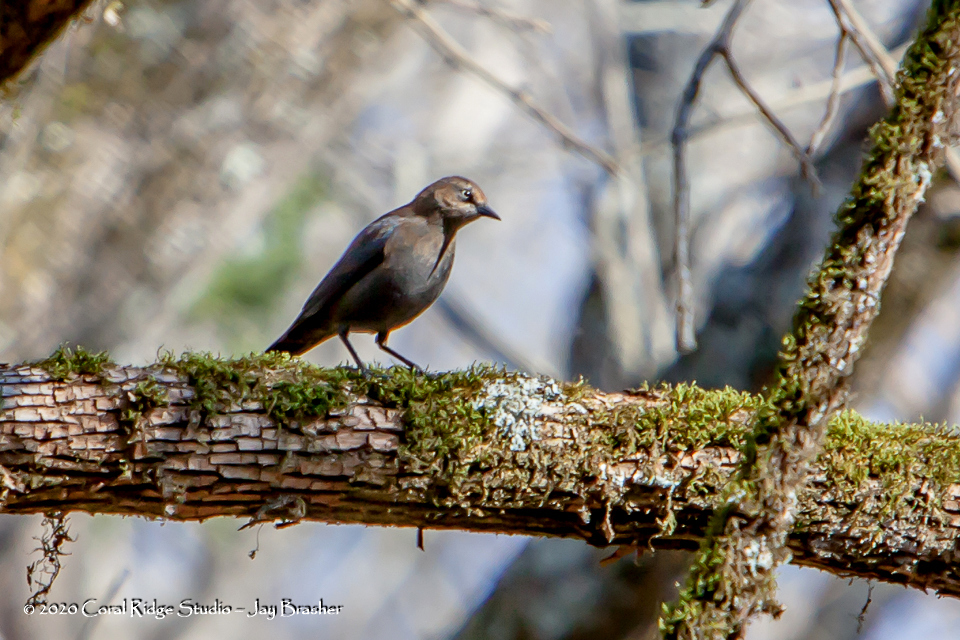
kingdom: Animalia
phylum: Chordata
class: Aves
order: Passeriformes
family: Icteridae
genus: Euphagus
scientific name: Euphagus carolinus
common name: Rusty blackbird
